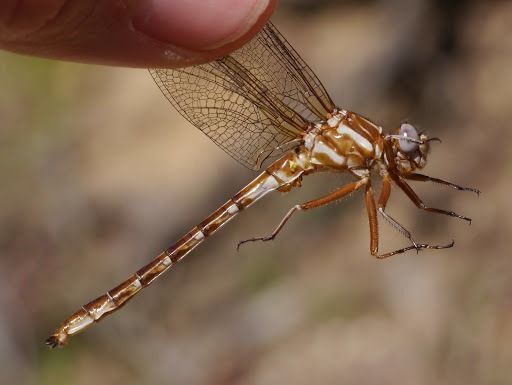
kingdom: Animalia
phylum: Arthropoda
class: Insecta
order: Odonata
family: Gomphidae
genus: Phanogomphus
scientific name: Phanogomphus lividus
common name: Ashy clubtail
